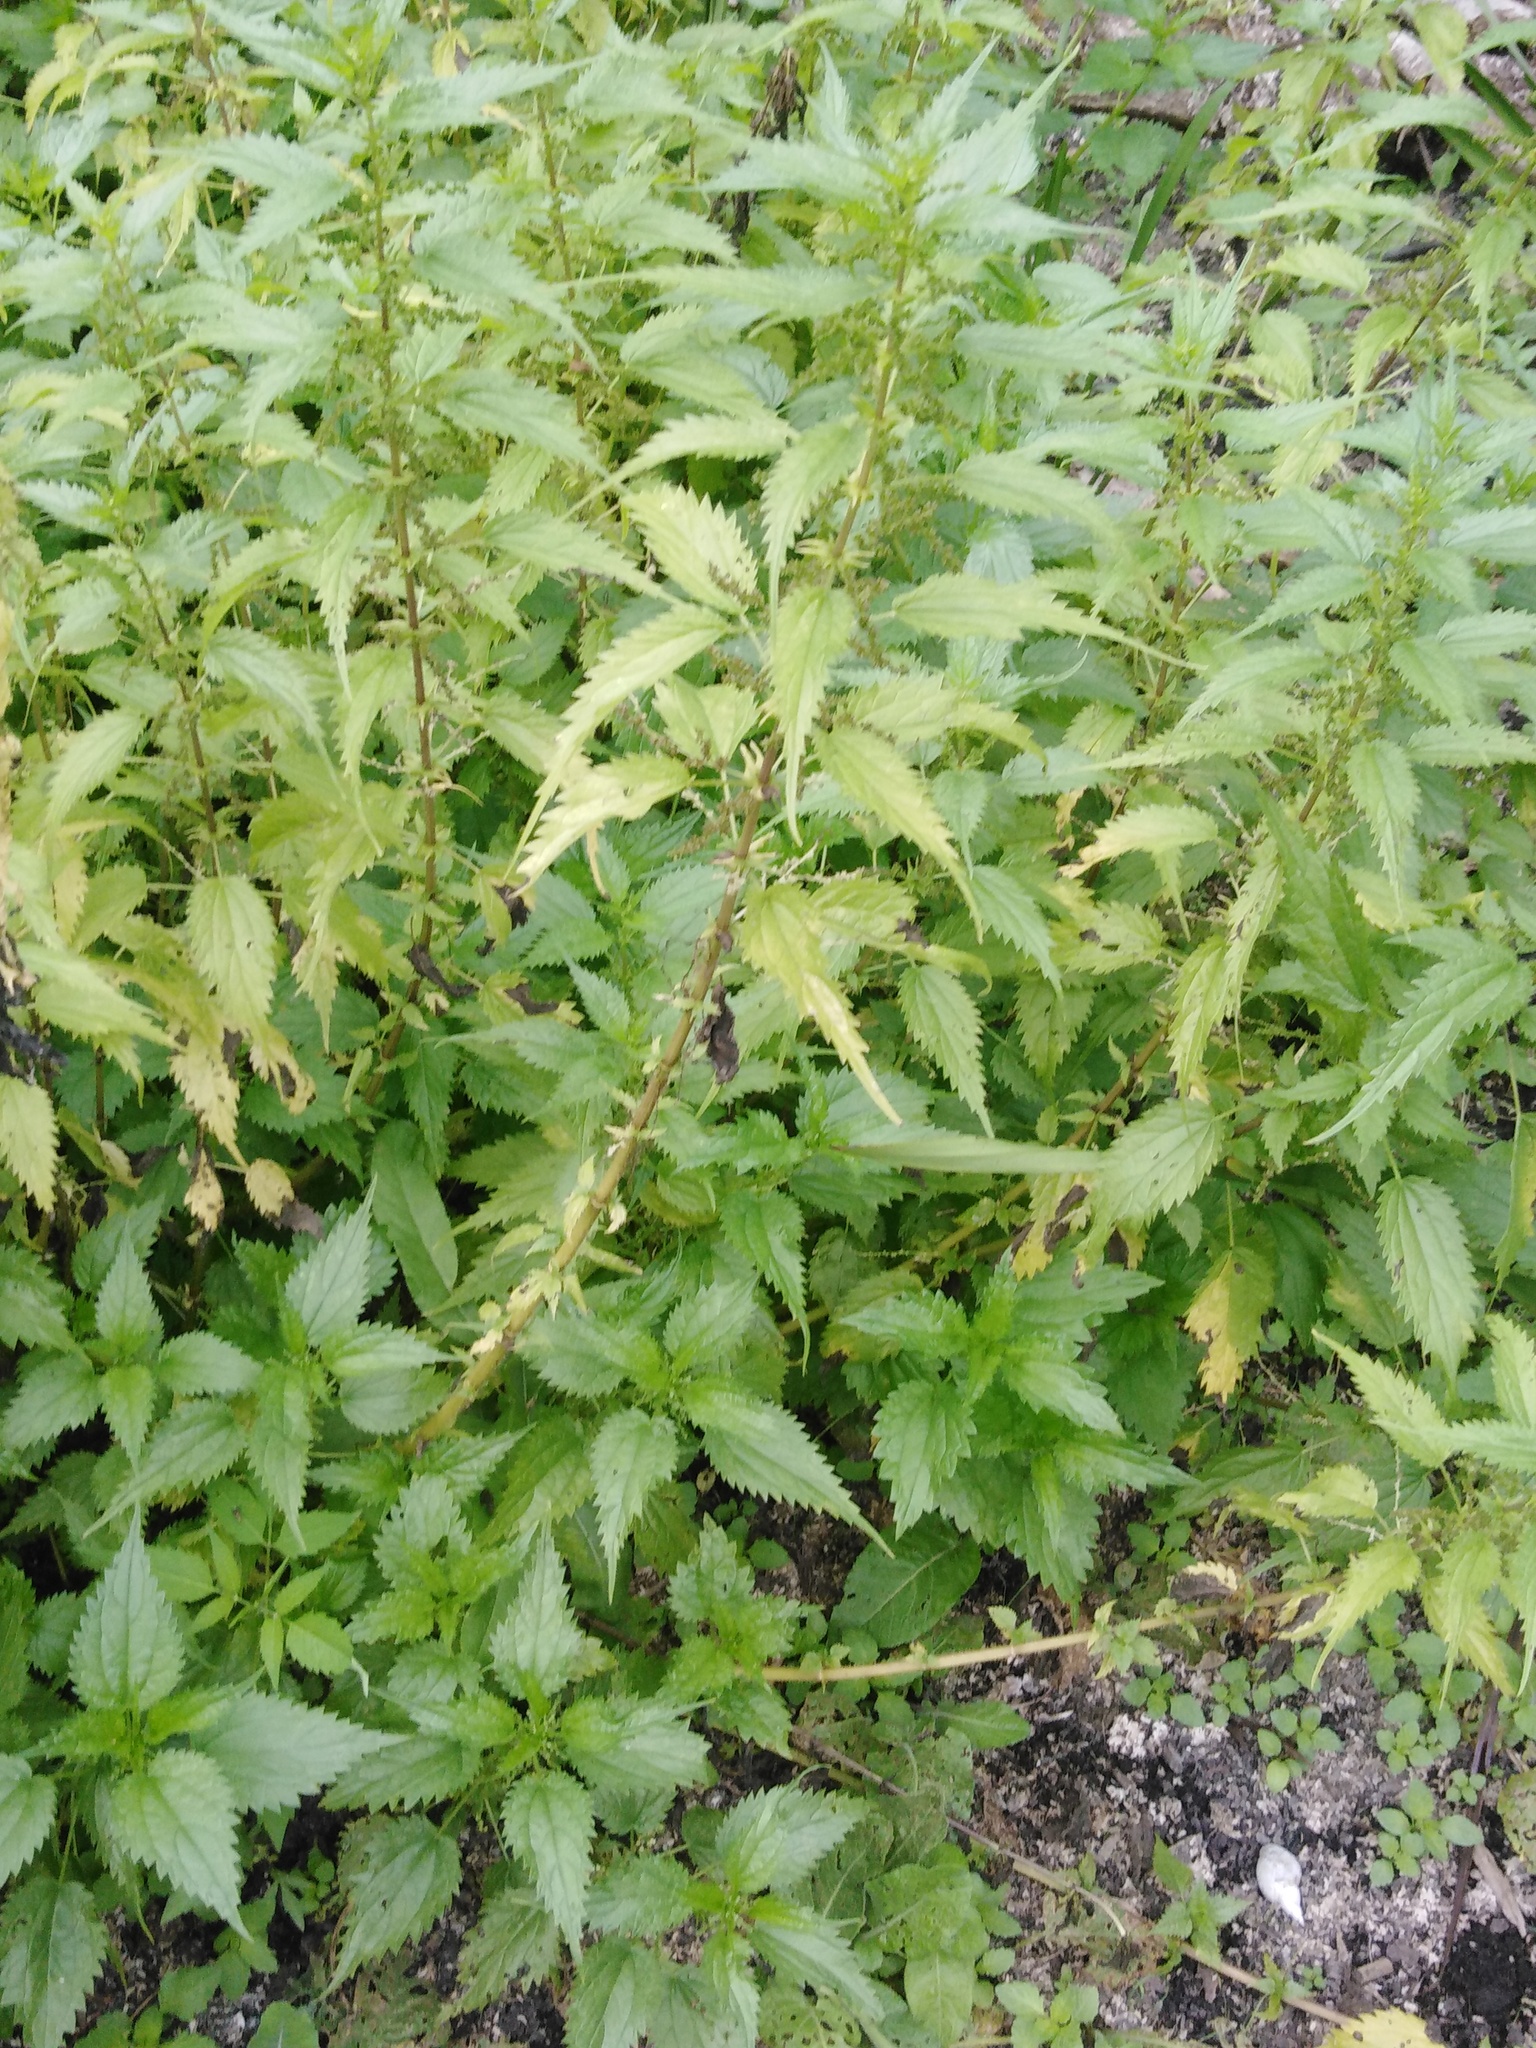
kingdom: Plantae
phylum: Tracheophyta
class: Magnoliopsida
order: Rosales
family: Urticaceae
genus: Urtica
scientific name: Urtica kioviensis
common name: Kievan nettle
